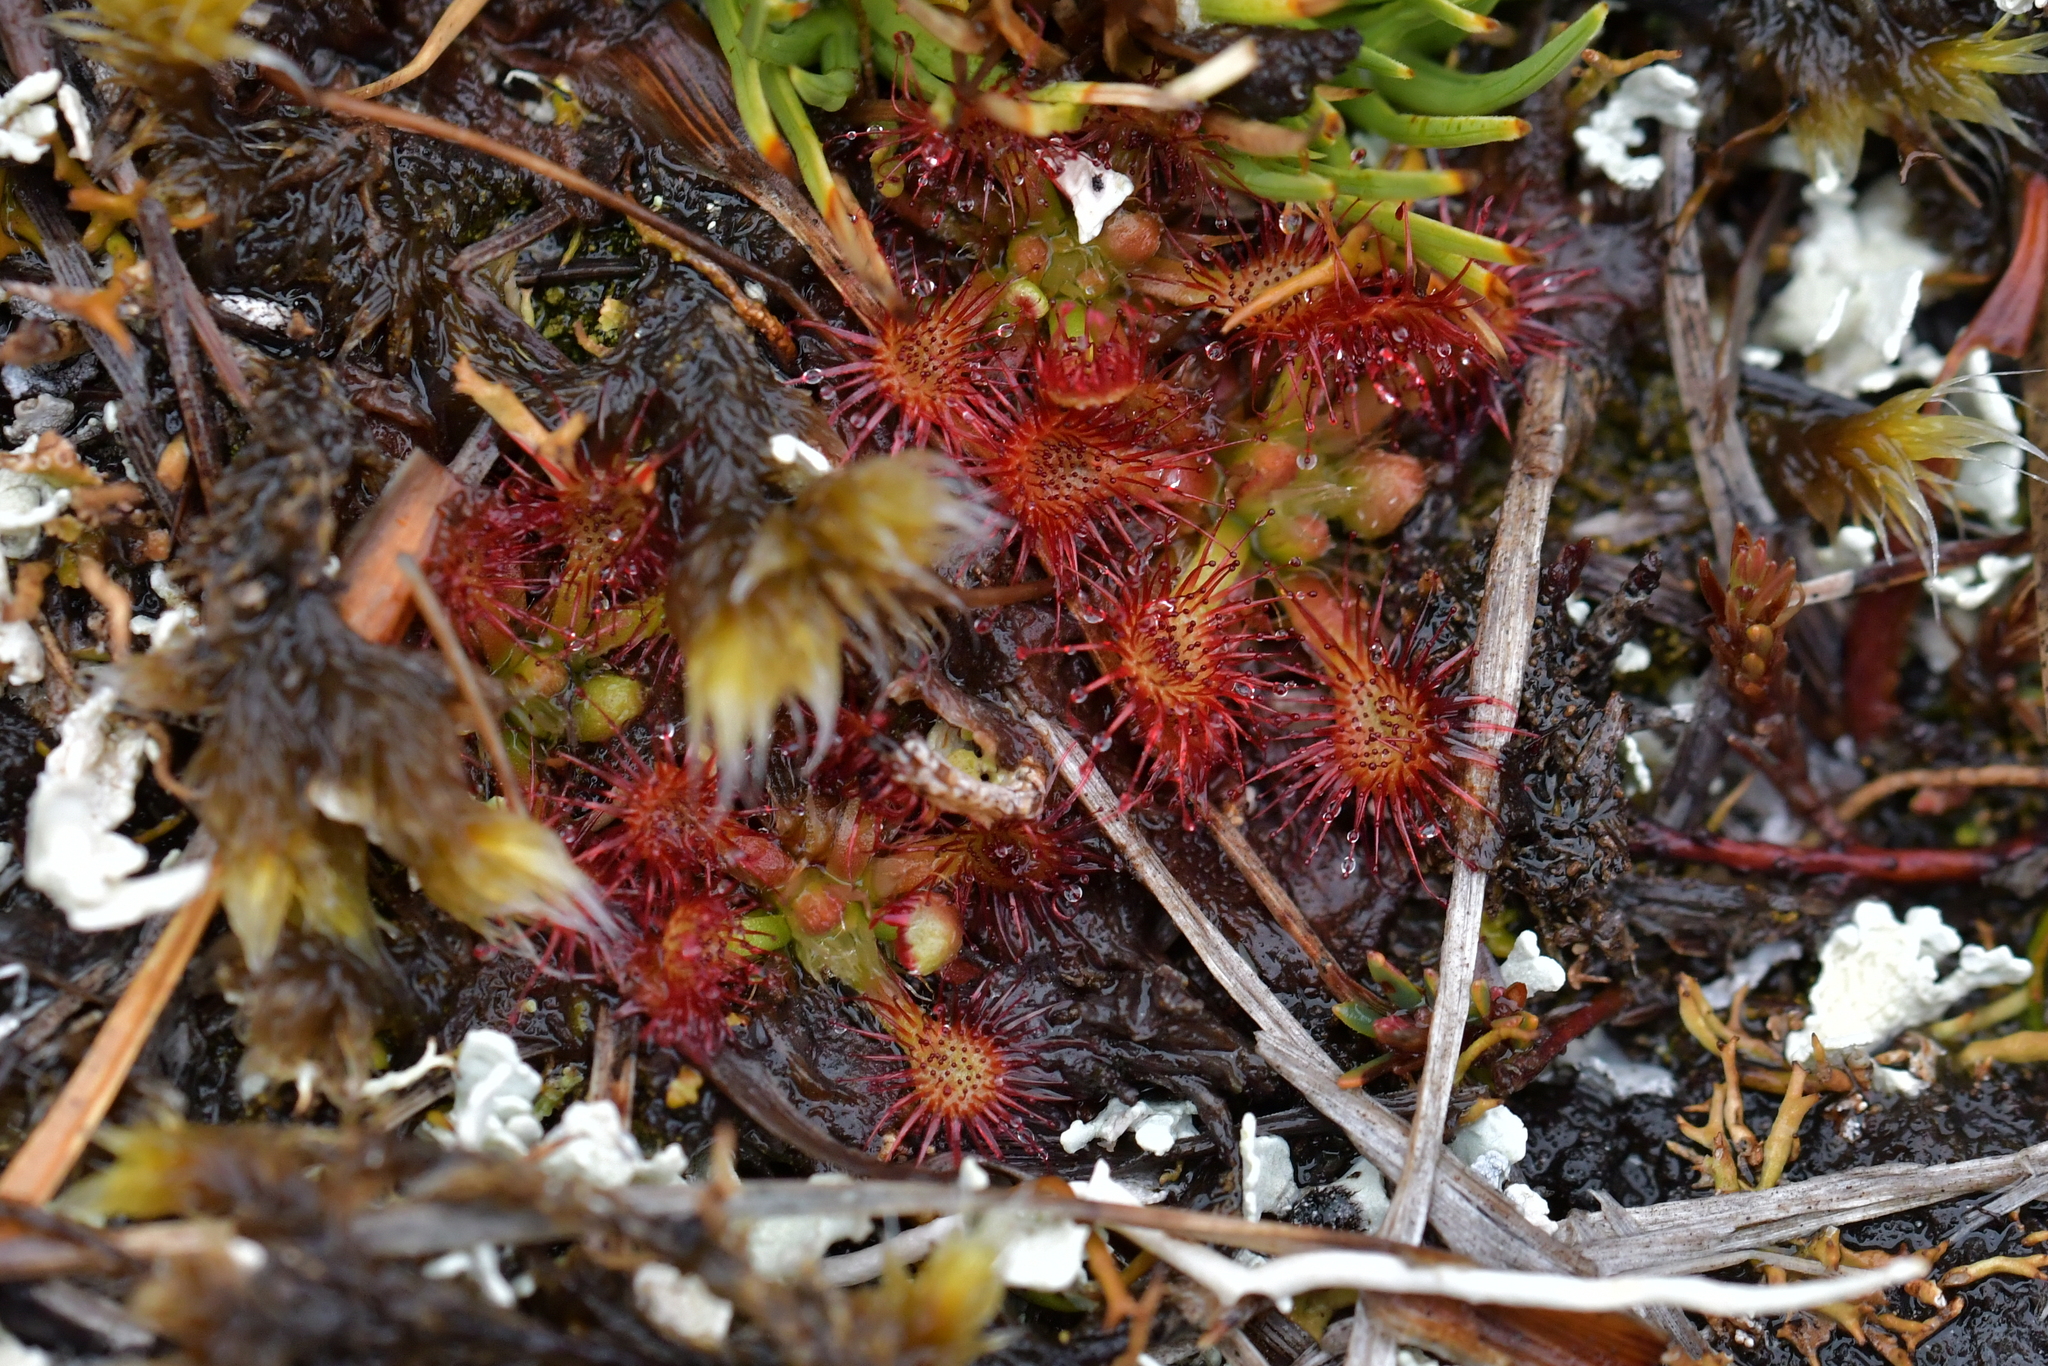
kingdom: Plantae
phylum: Tracheophyta
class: Magnoliopsida
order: Caryophyllales
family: Droseraceae
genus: Drosera
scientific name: Drosera spatulata
